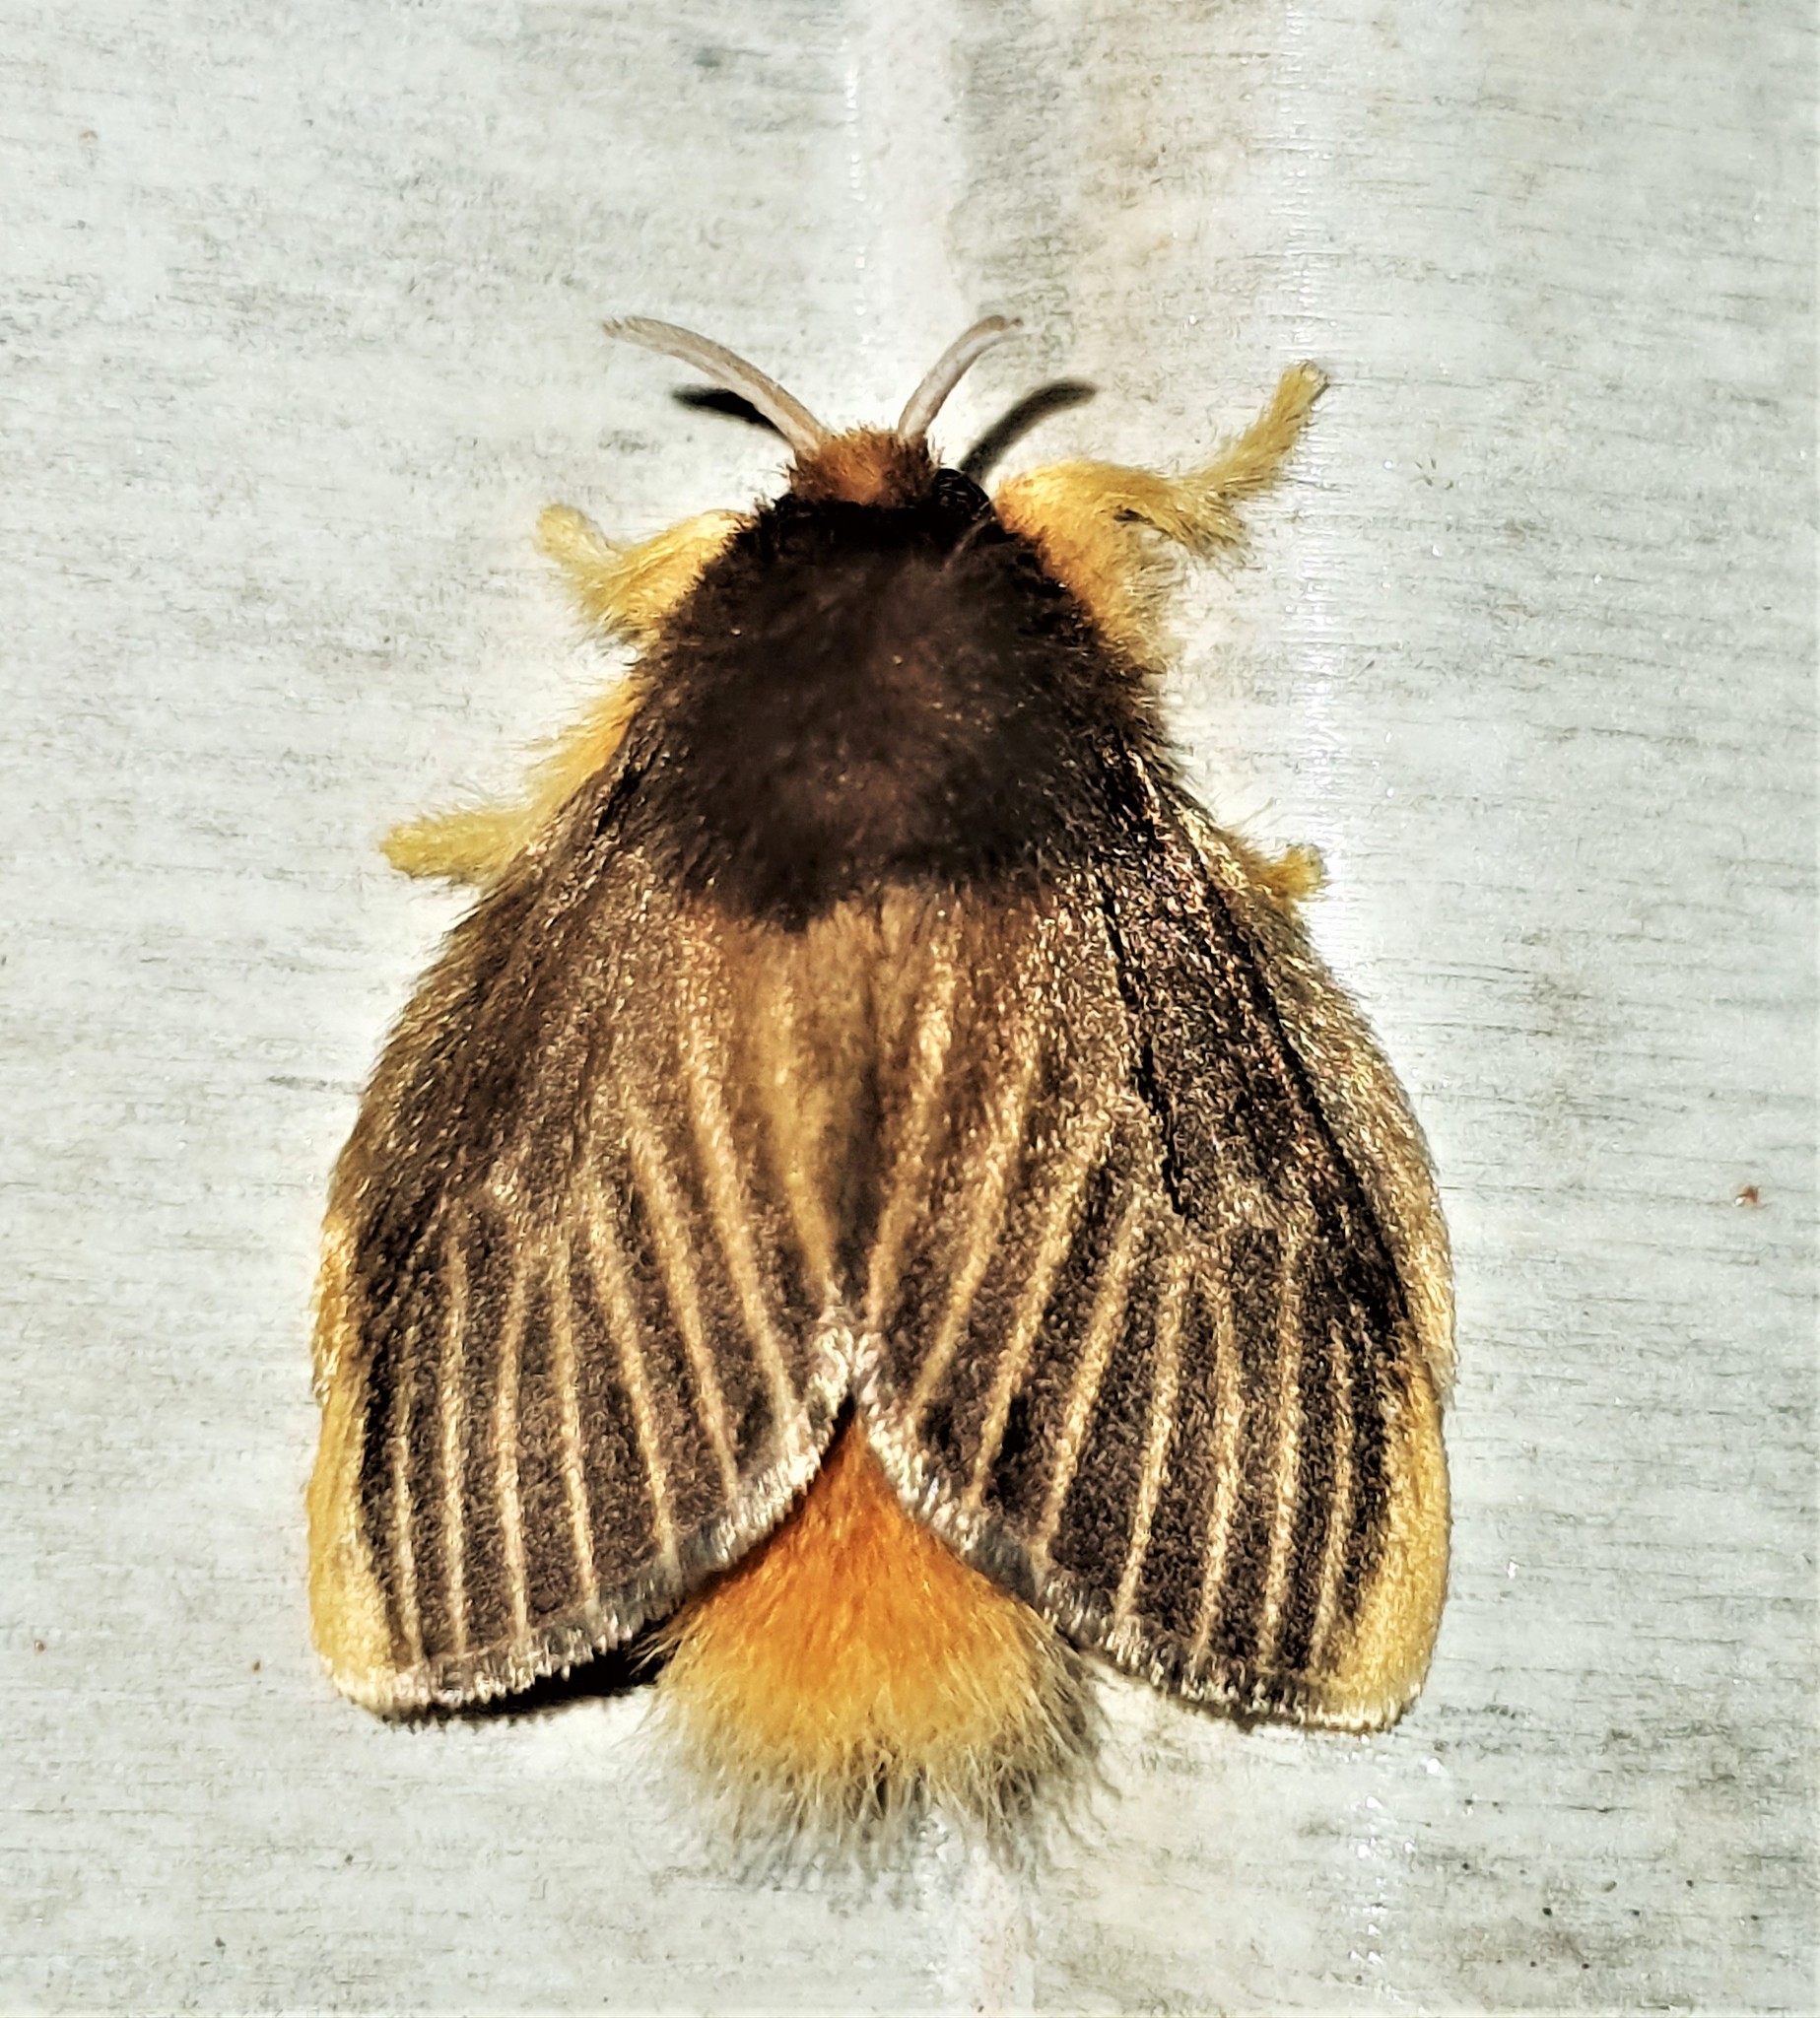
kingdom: Animalia
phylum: Arthropoda
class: Insecta
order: Lepidoptera
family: Megalopygidae
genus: Megalopyge
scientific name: Megalopyge hina
